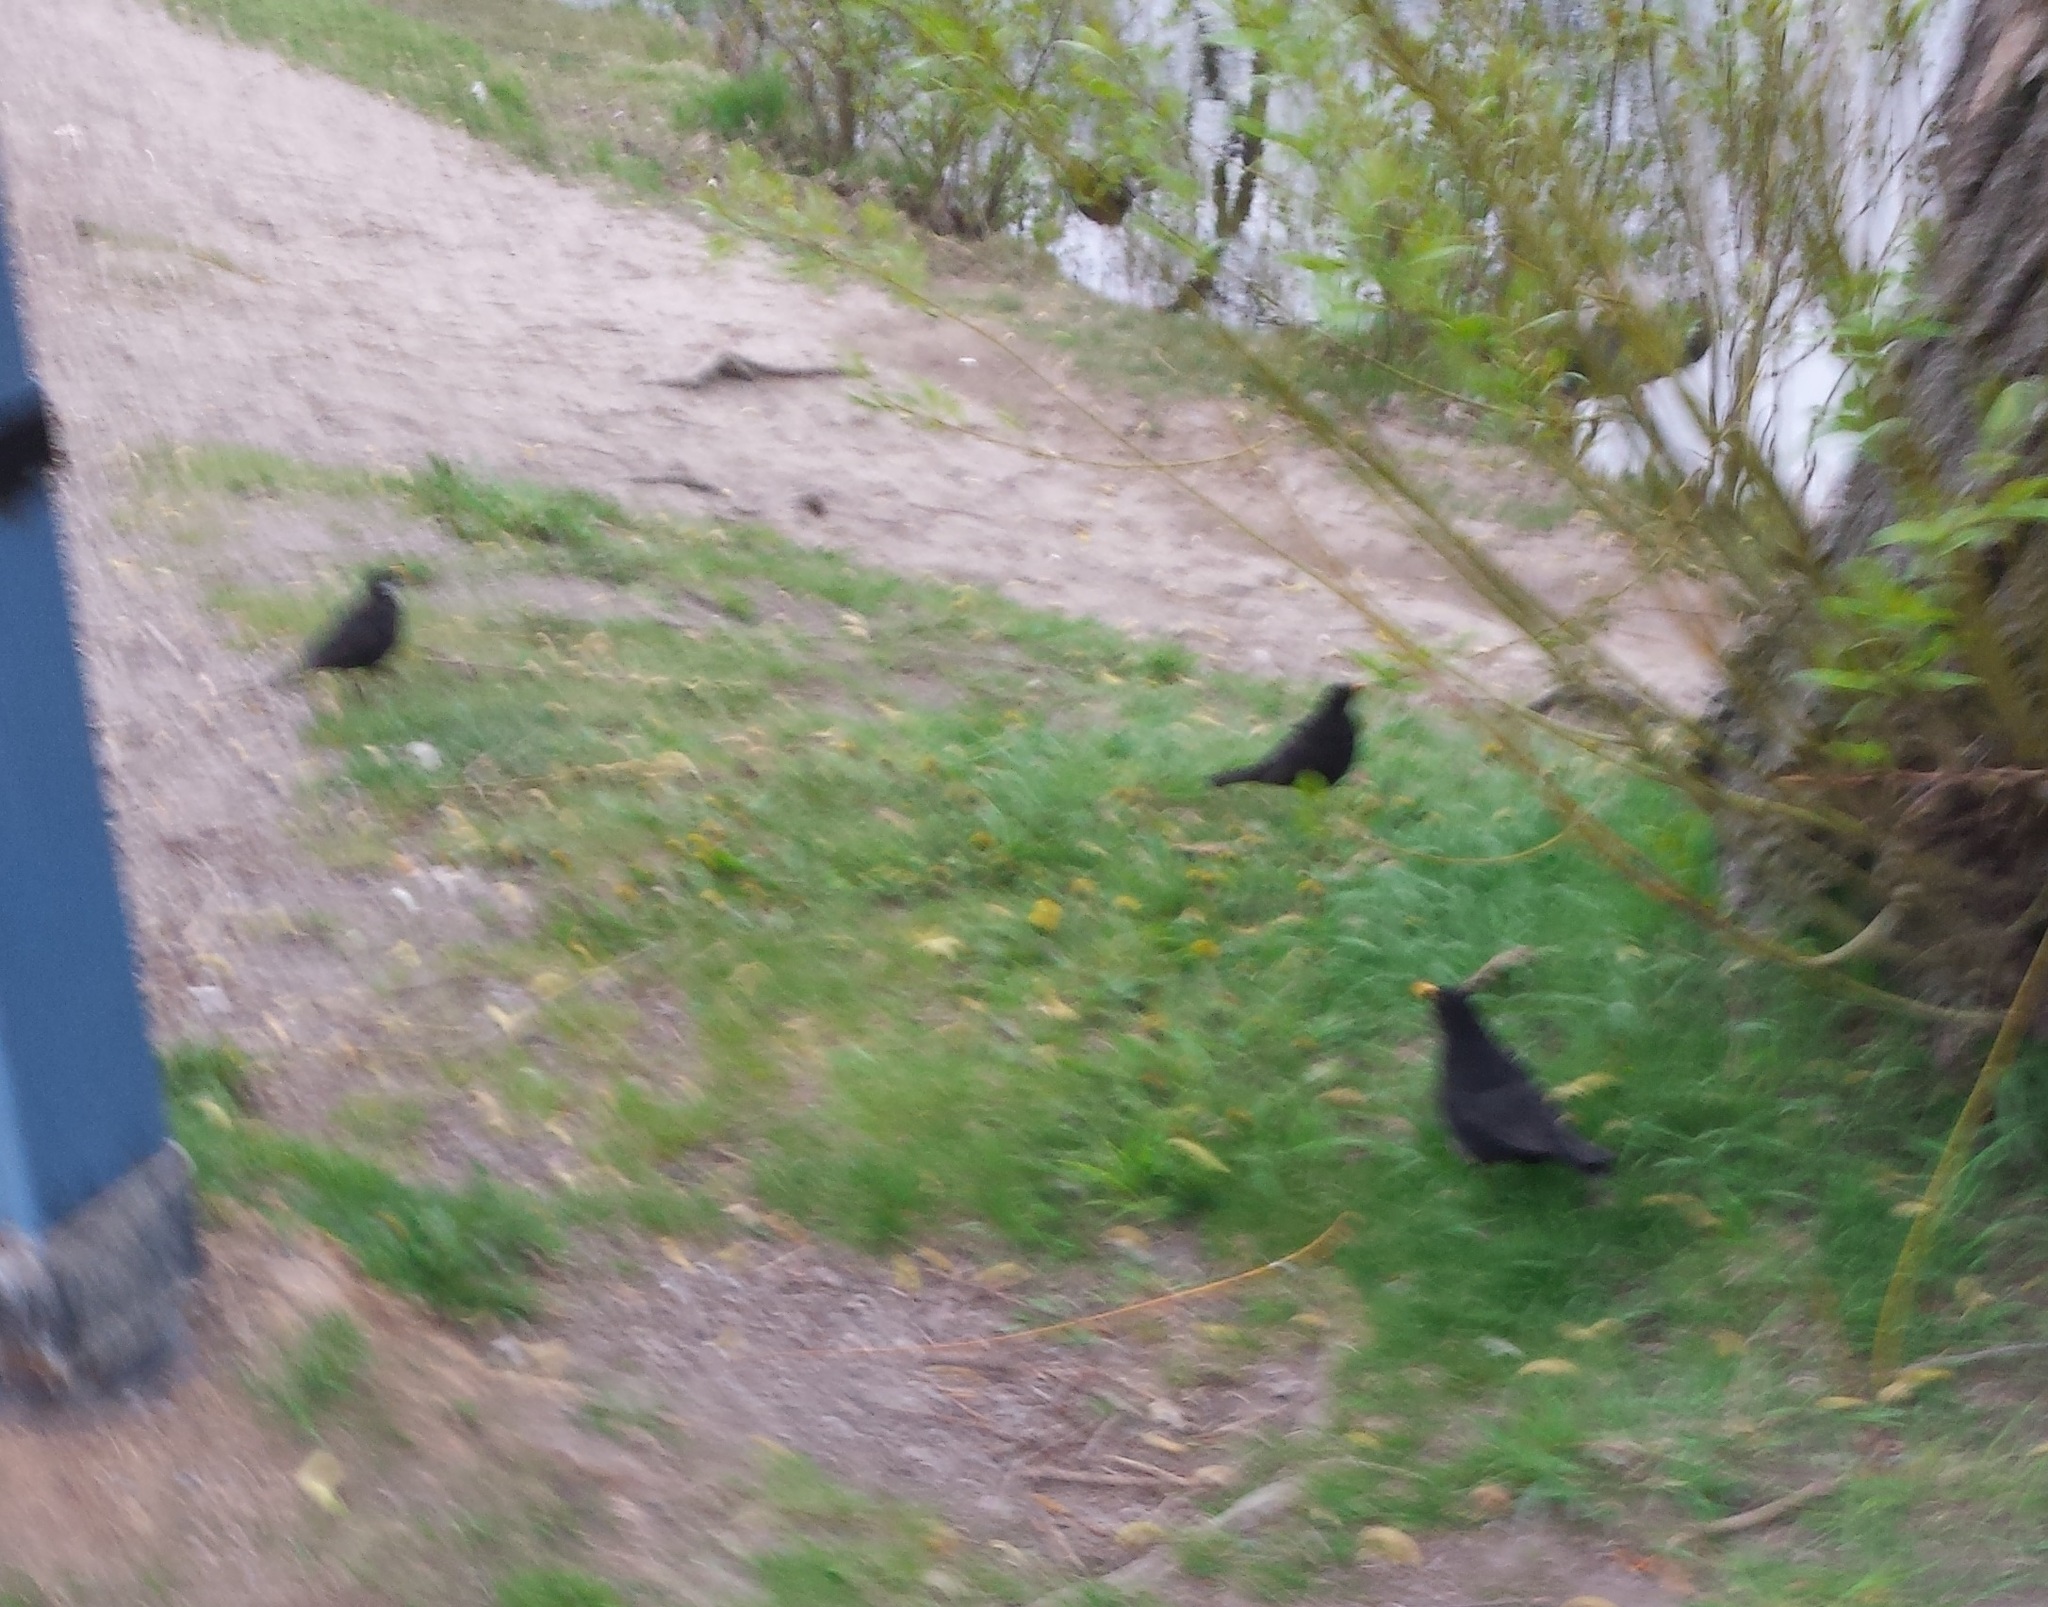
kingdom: Animalia
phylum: Chordata
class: Aves
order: Passeriformes
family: Turdidae
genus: Turdus
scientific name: Turdus merula
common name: Common blackbird
